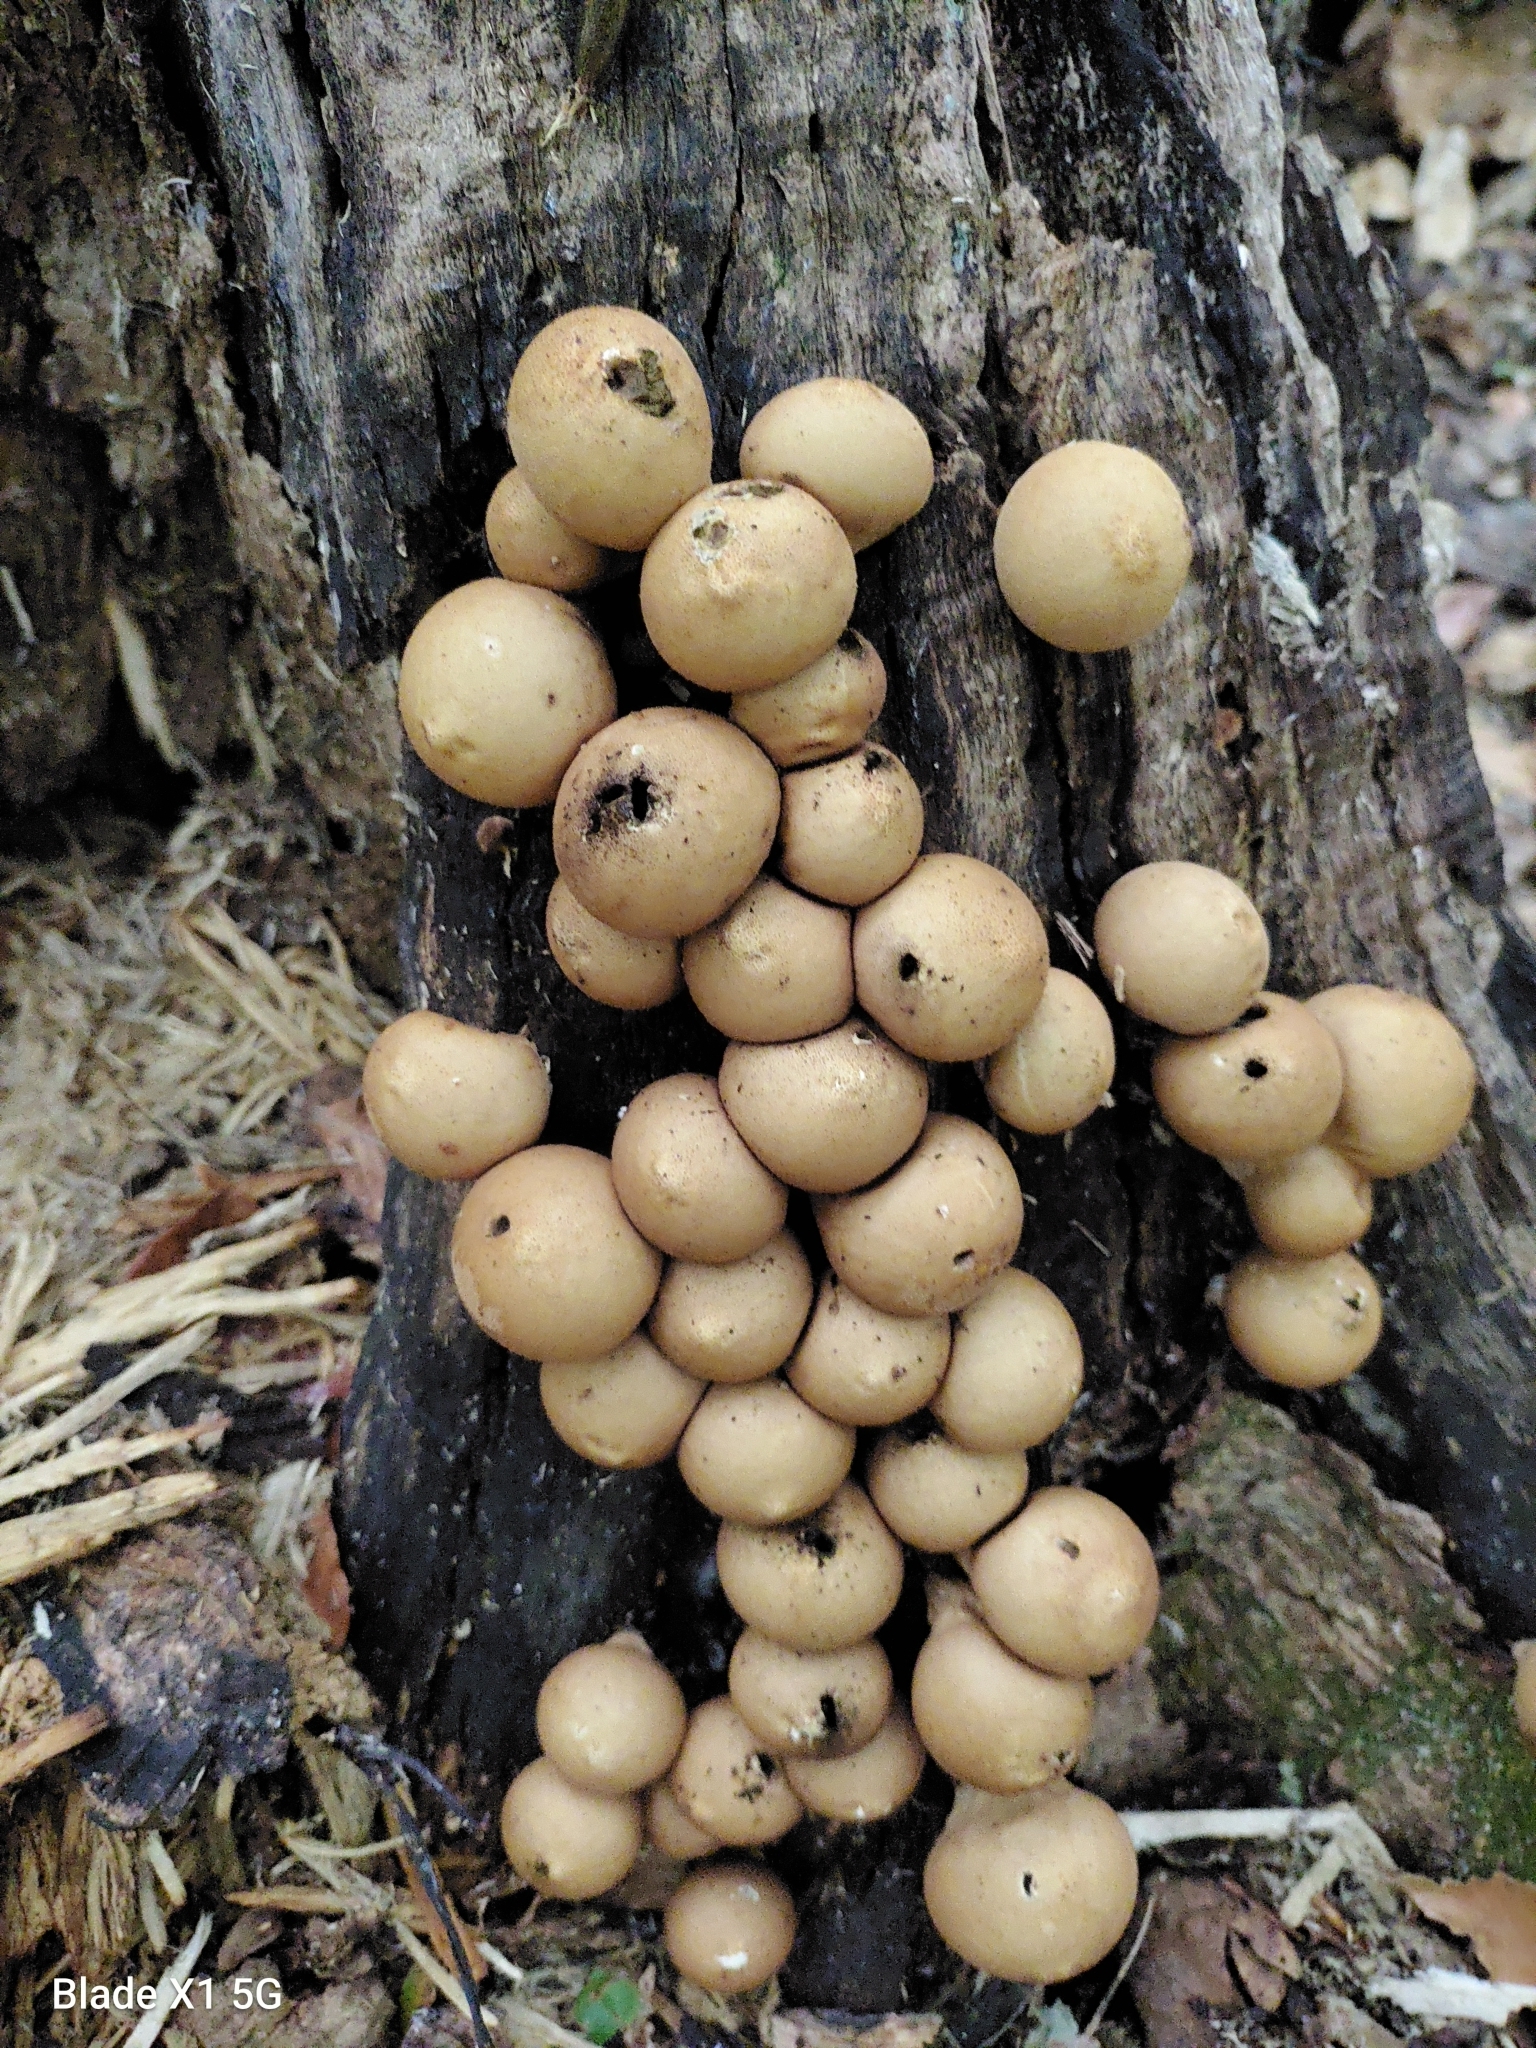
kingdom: Fungi
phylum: Basidiomycota
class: Agaricomycetes
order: Agaricales
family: Lycoperdaceae
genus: Apioperdon
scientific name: Apioperdon pyriforme
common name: Pear-shaped puffball
